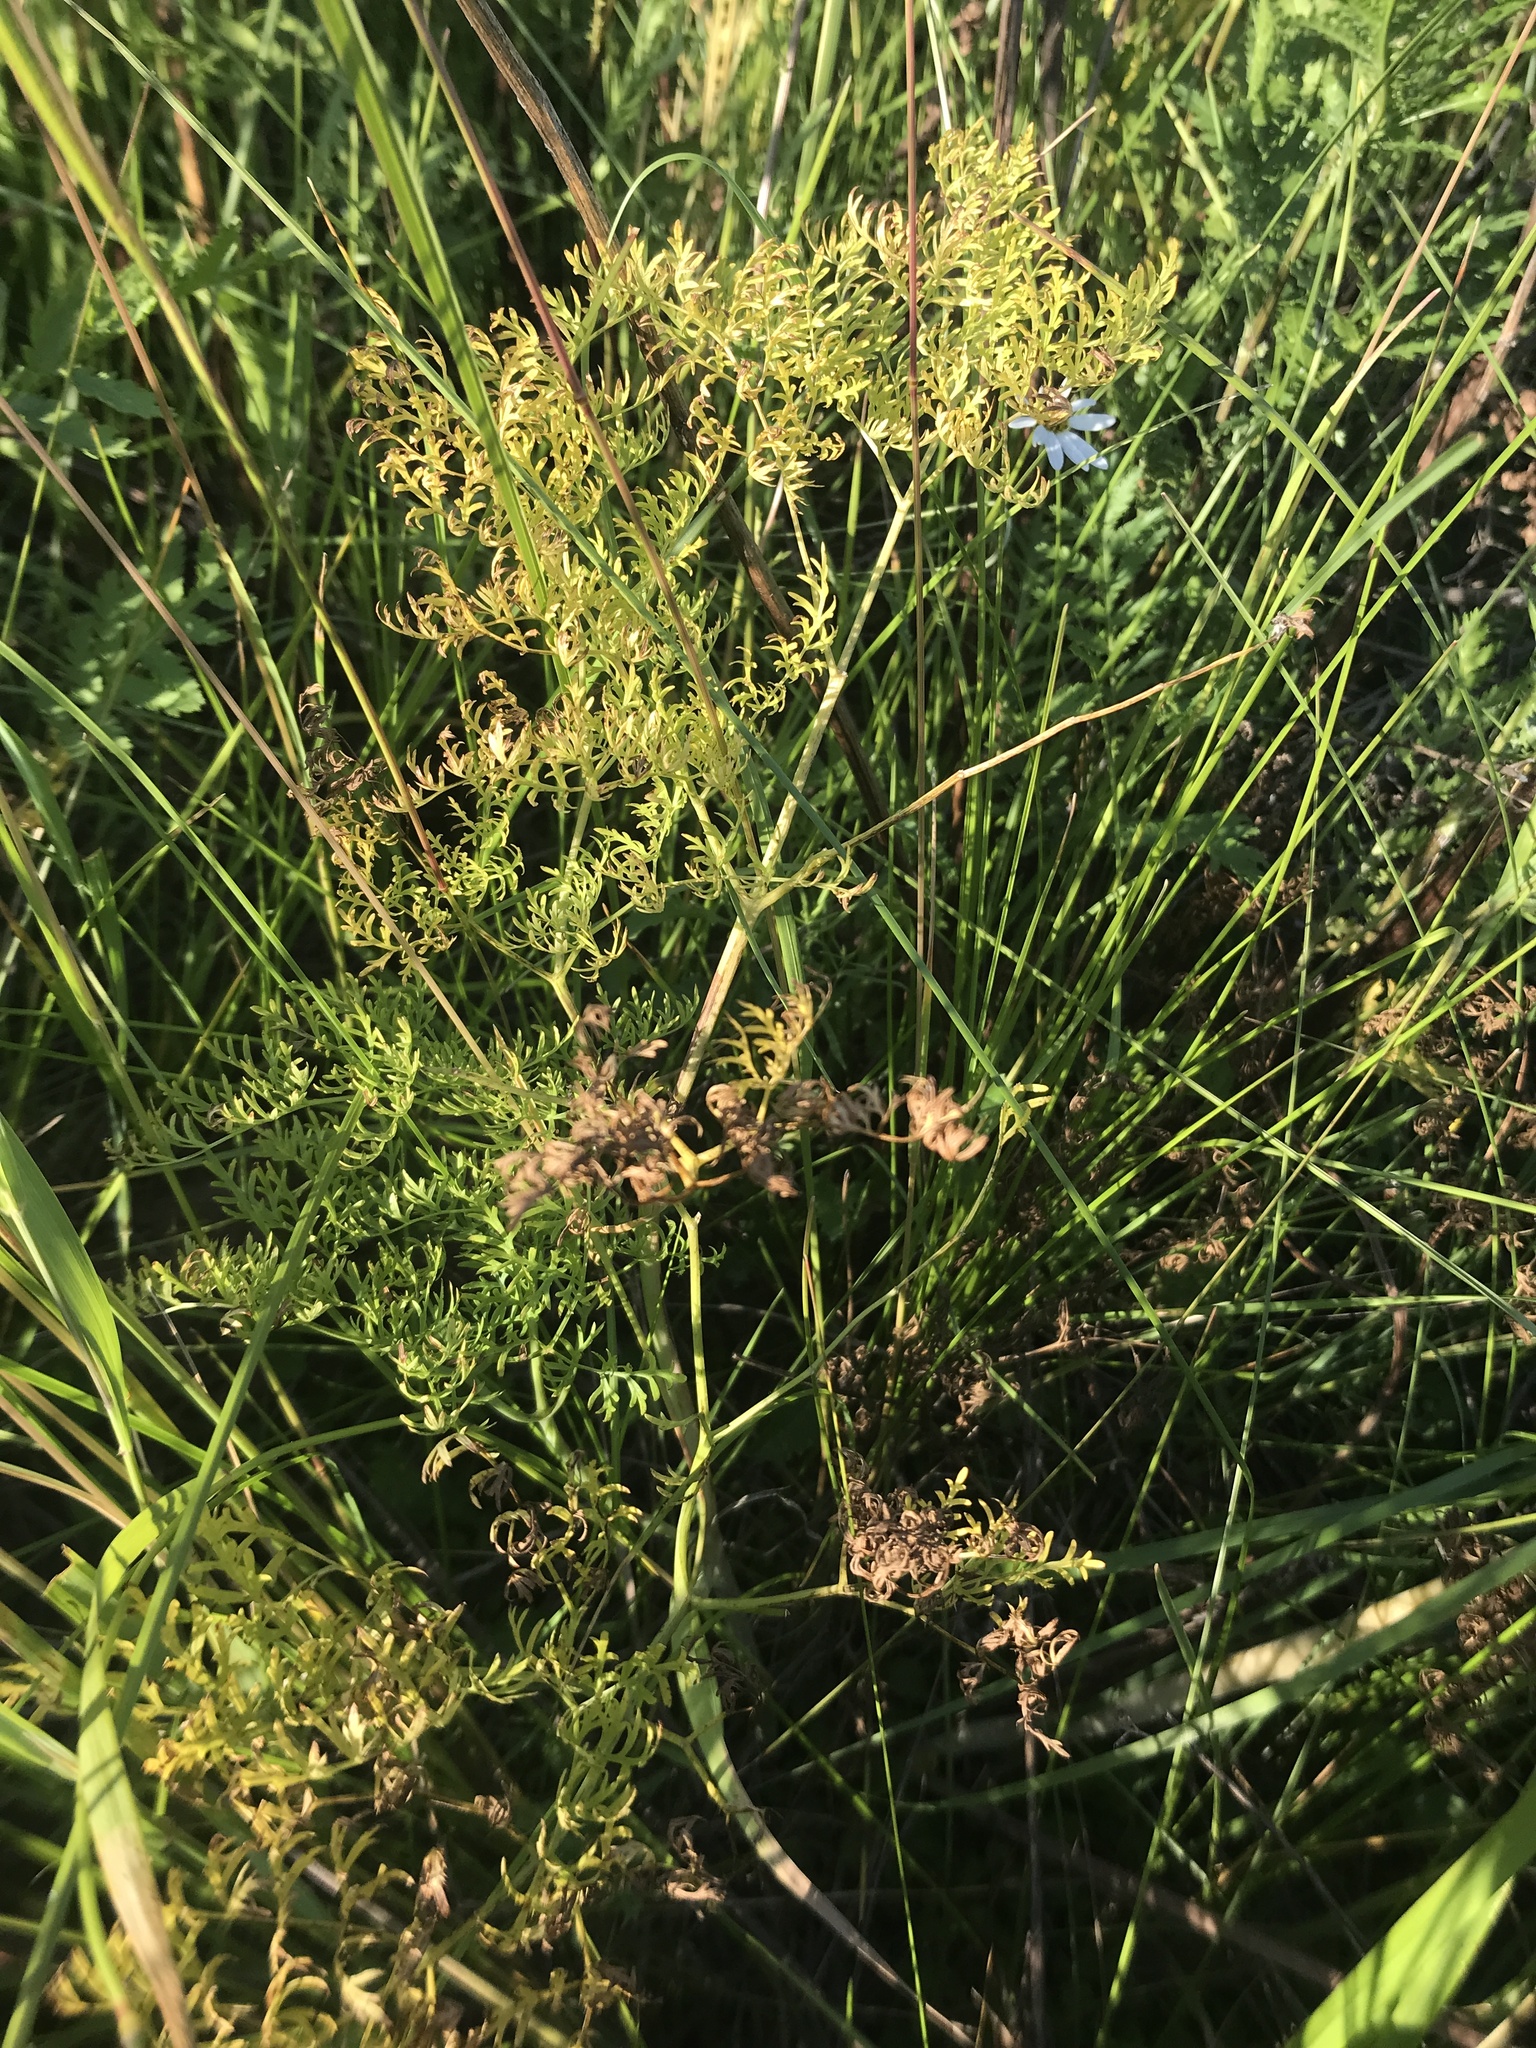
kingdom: Plantae
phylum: Tracheophyta
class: Magnoliopsida
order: Apiales
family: Apiaceae
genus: Lomatium
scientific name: Lomatium dissectum
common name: Lomatium
